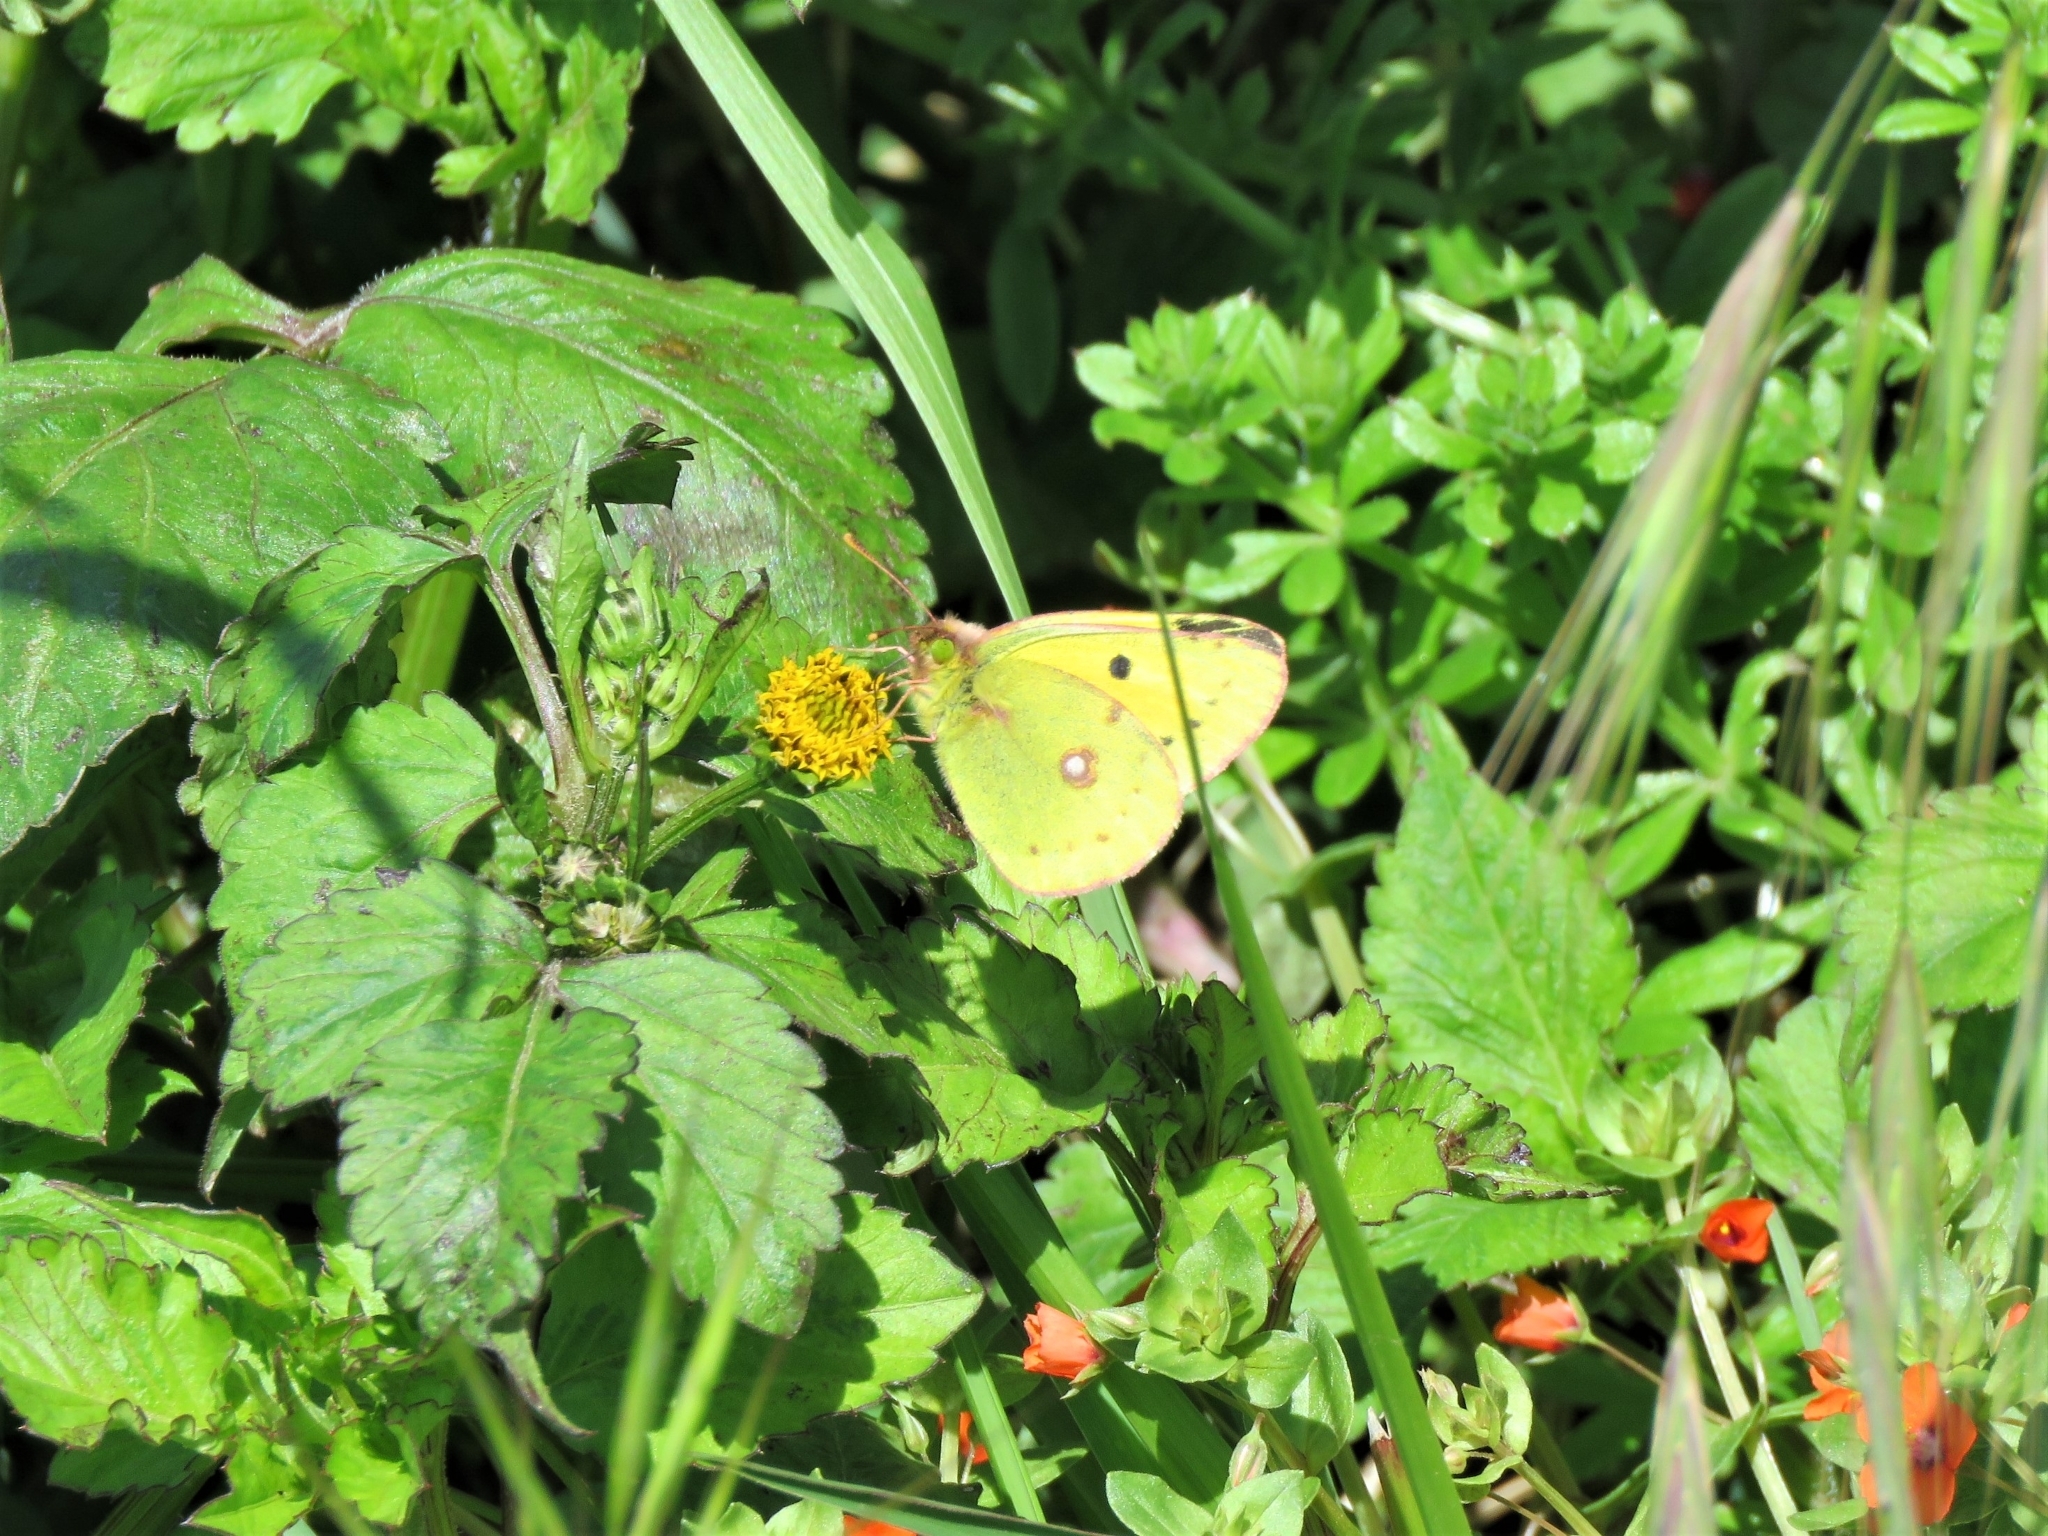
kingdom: Animalia
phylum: Arthropoda
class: Insecta
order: Lepidoptera
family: Pieridae
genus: Colias
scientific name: Colias croceus
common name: Clouded yellow
